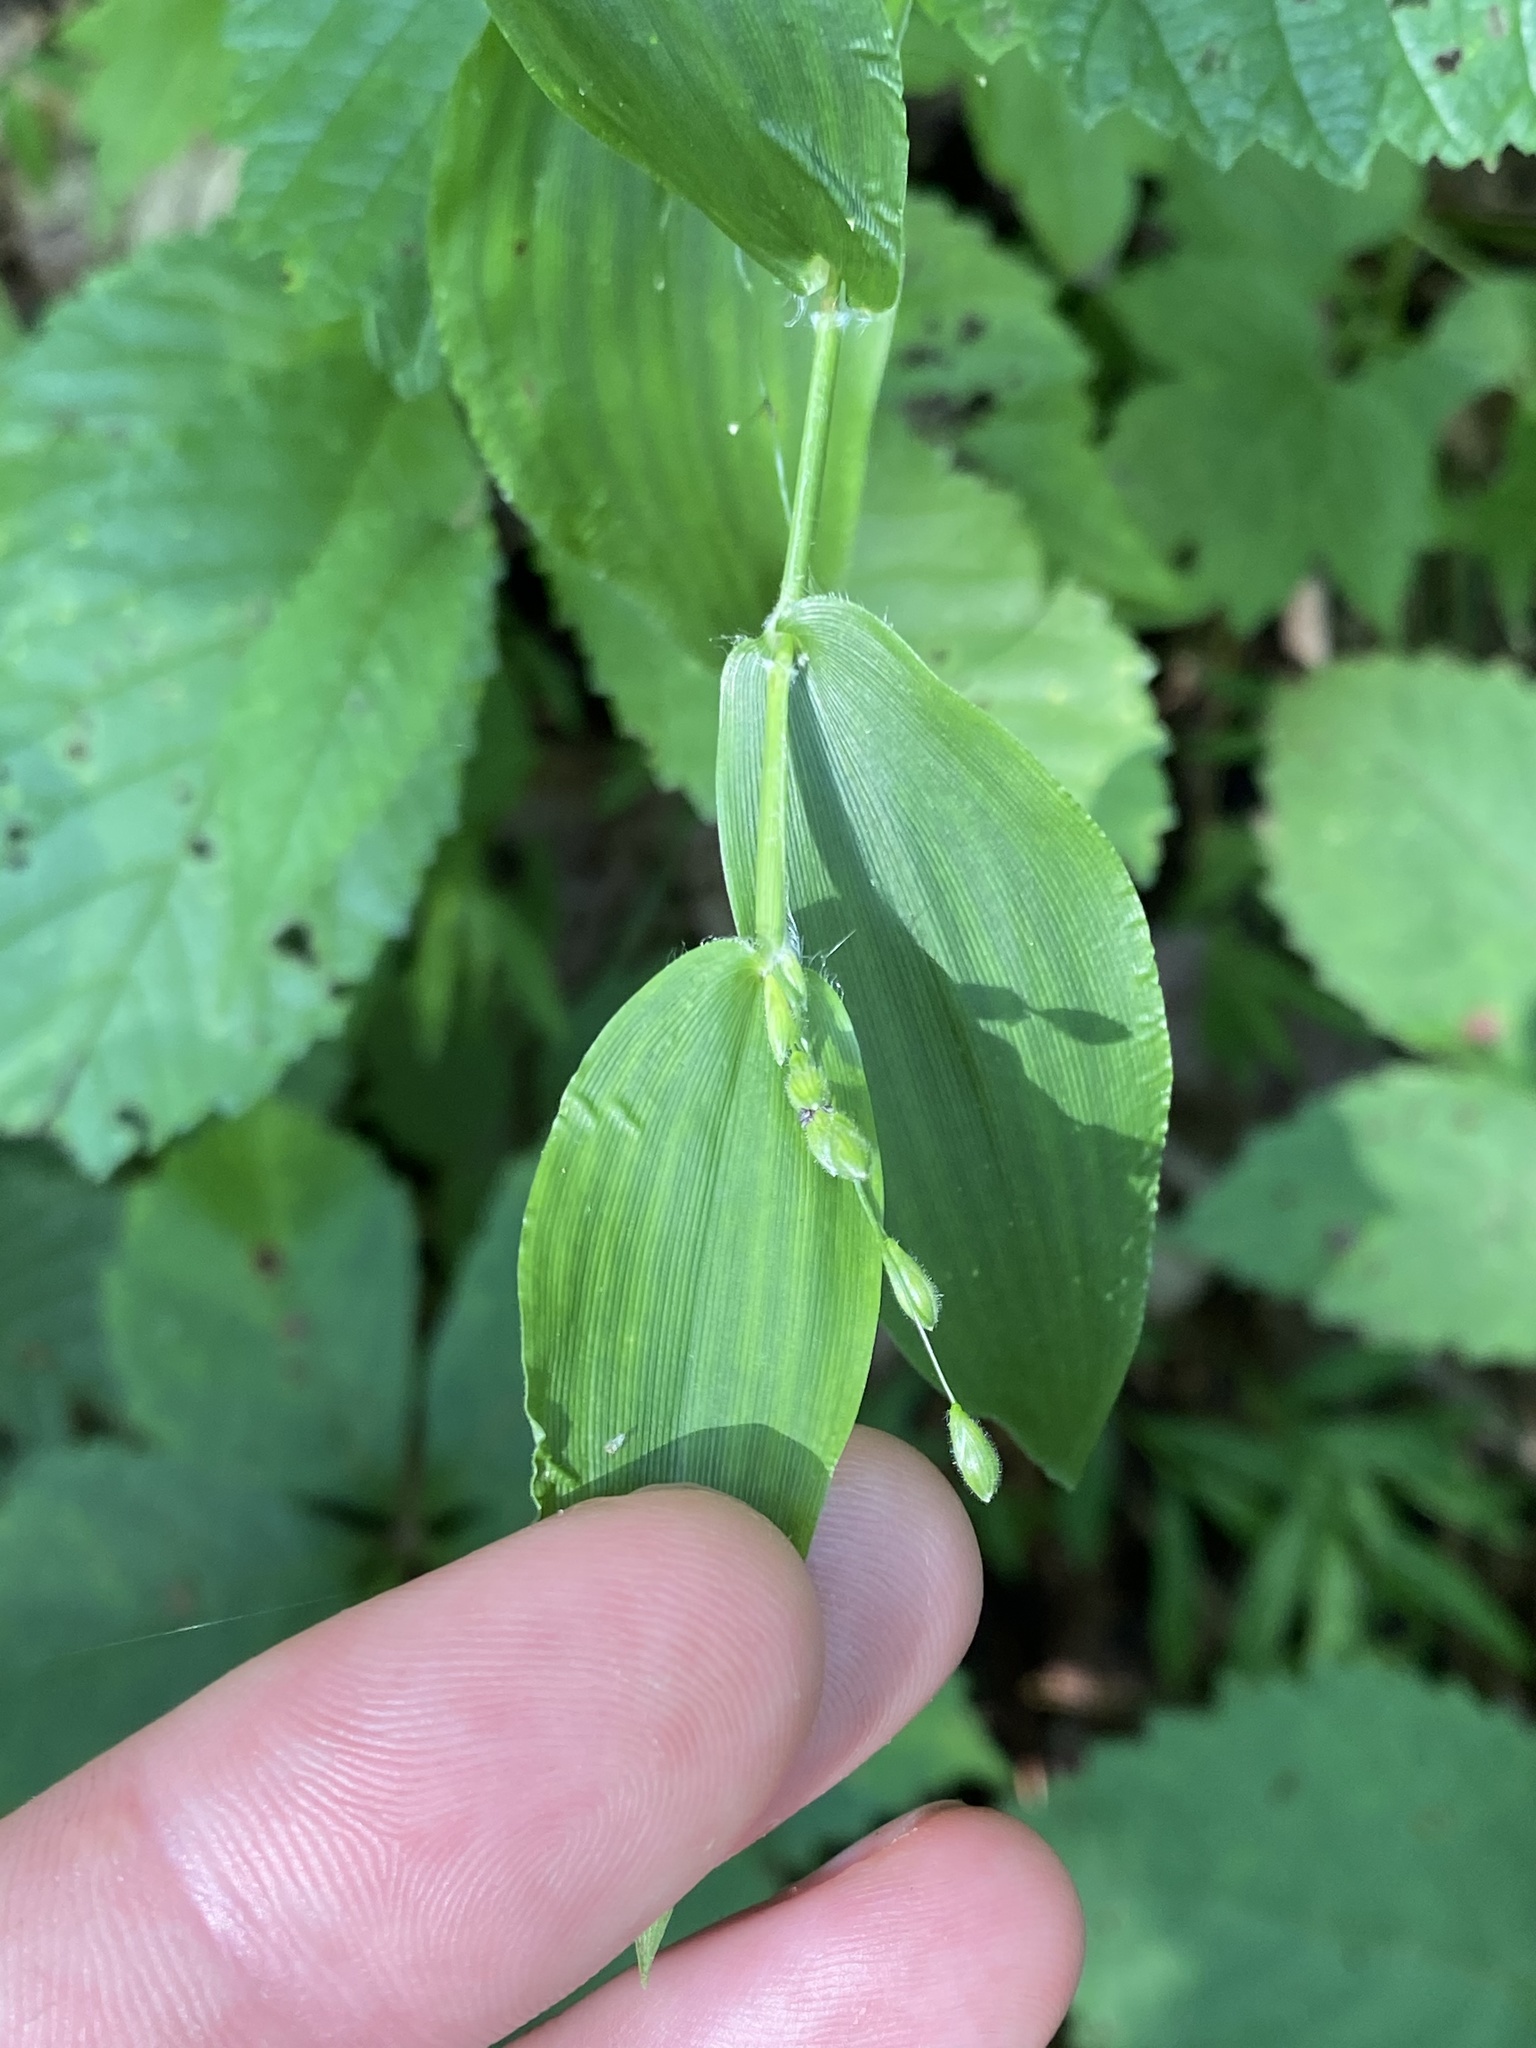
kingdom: Plantae
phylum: Tracheophyta
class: Liliopsida
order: Poales
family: Poaceae
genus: Dichanthelium
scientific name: Dichanthelium boscii
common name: Bosc's panic grass
